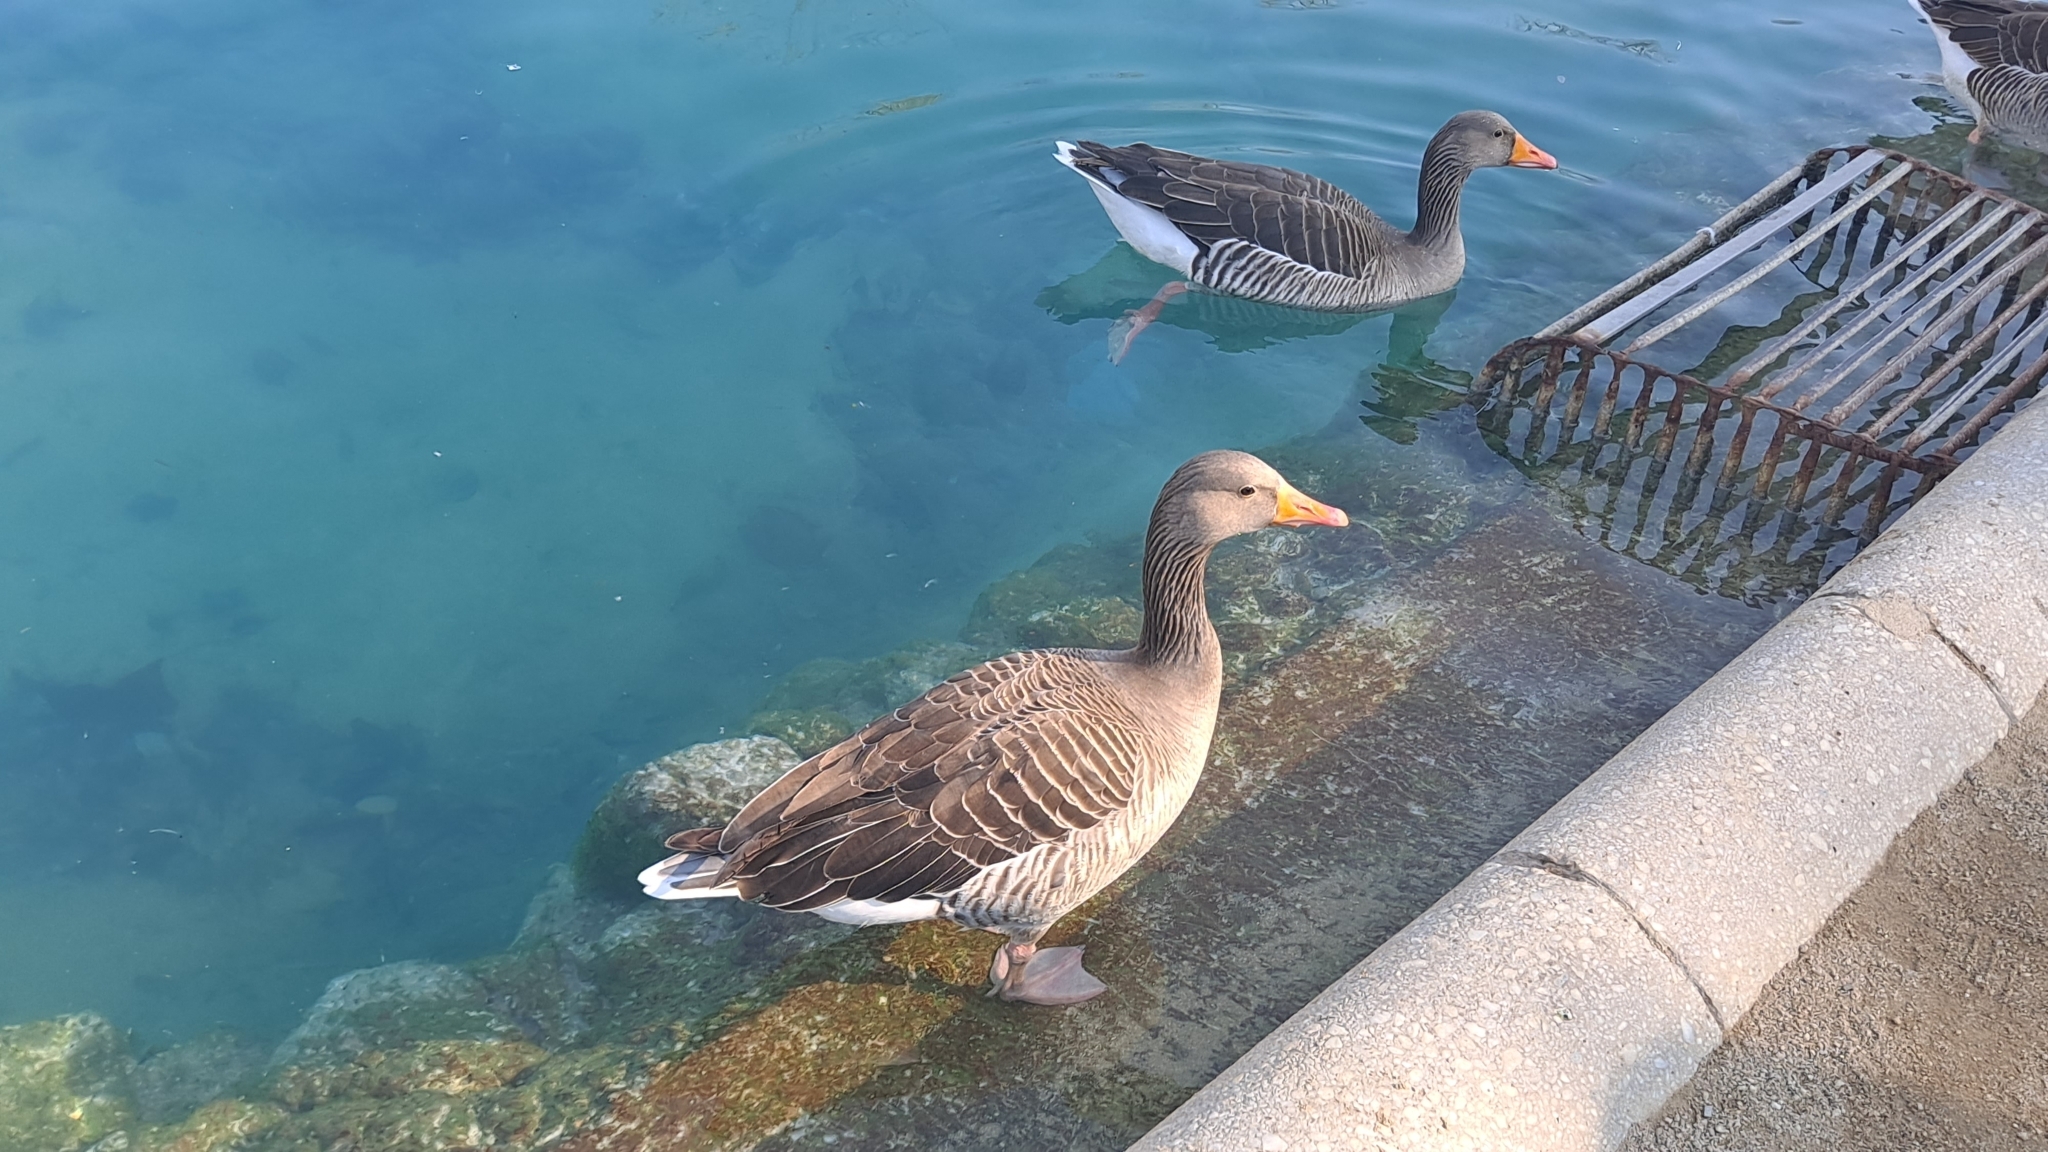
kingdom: Animalia
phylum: Chordata
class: Aves
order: Anseriformes
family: Anatidae
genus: Anser
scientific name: Anser anser
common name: Greylag goose
